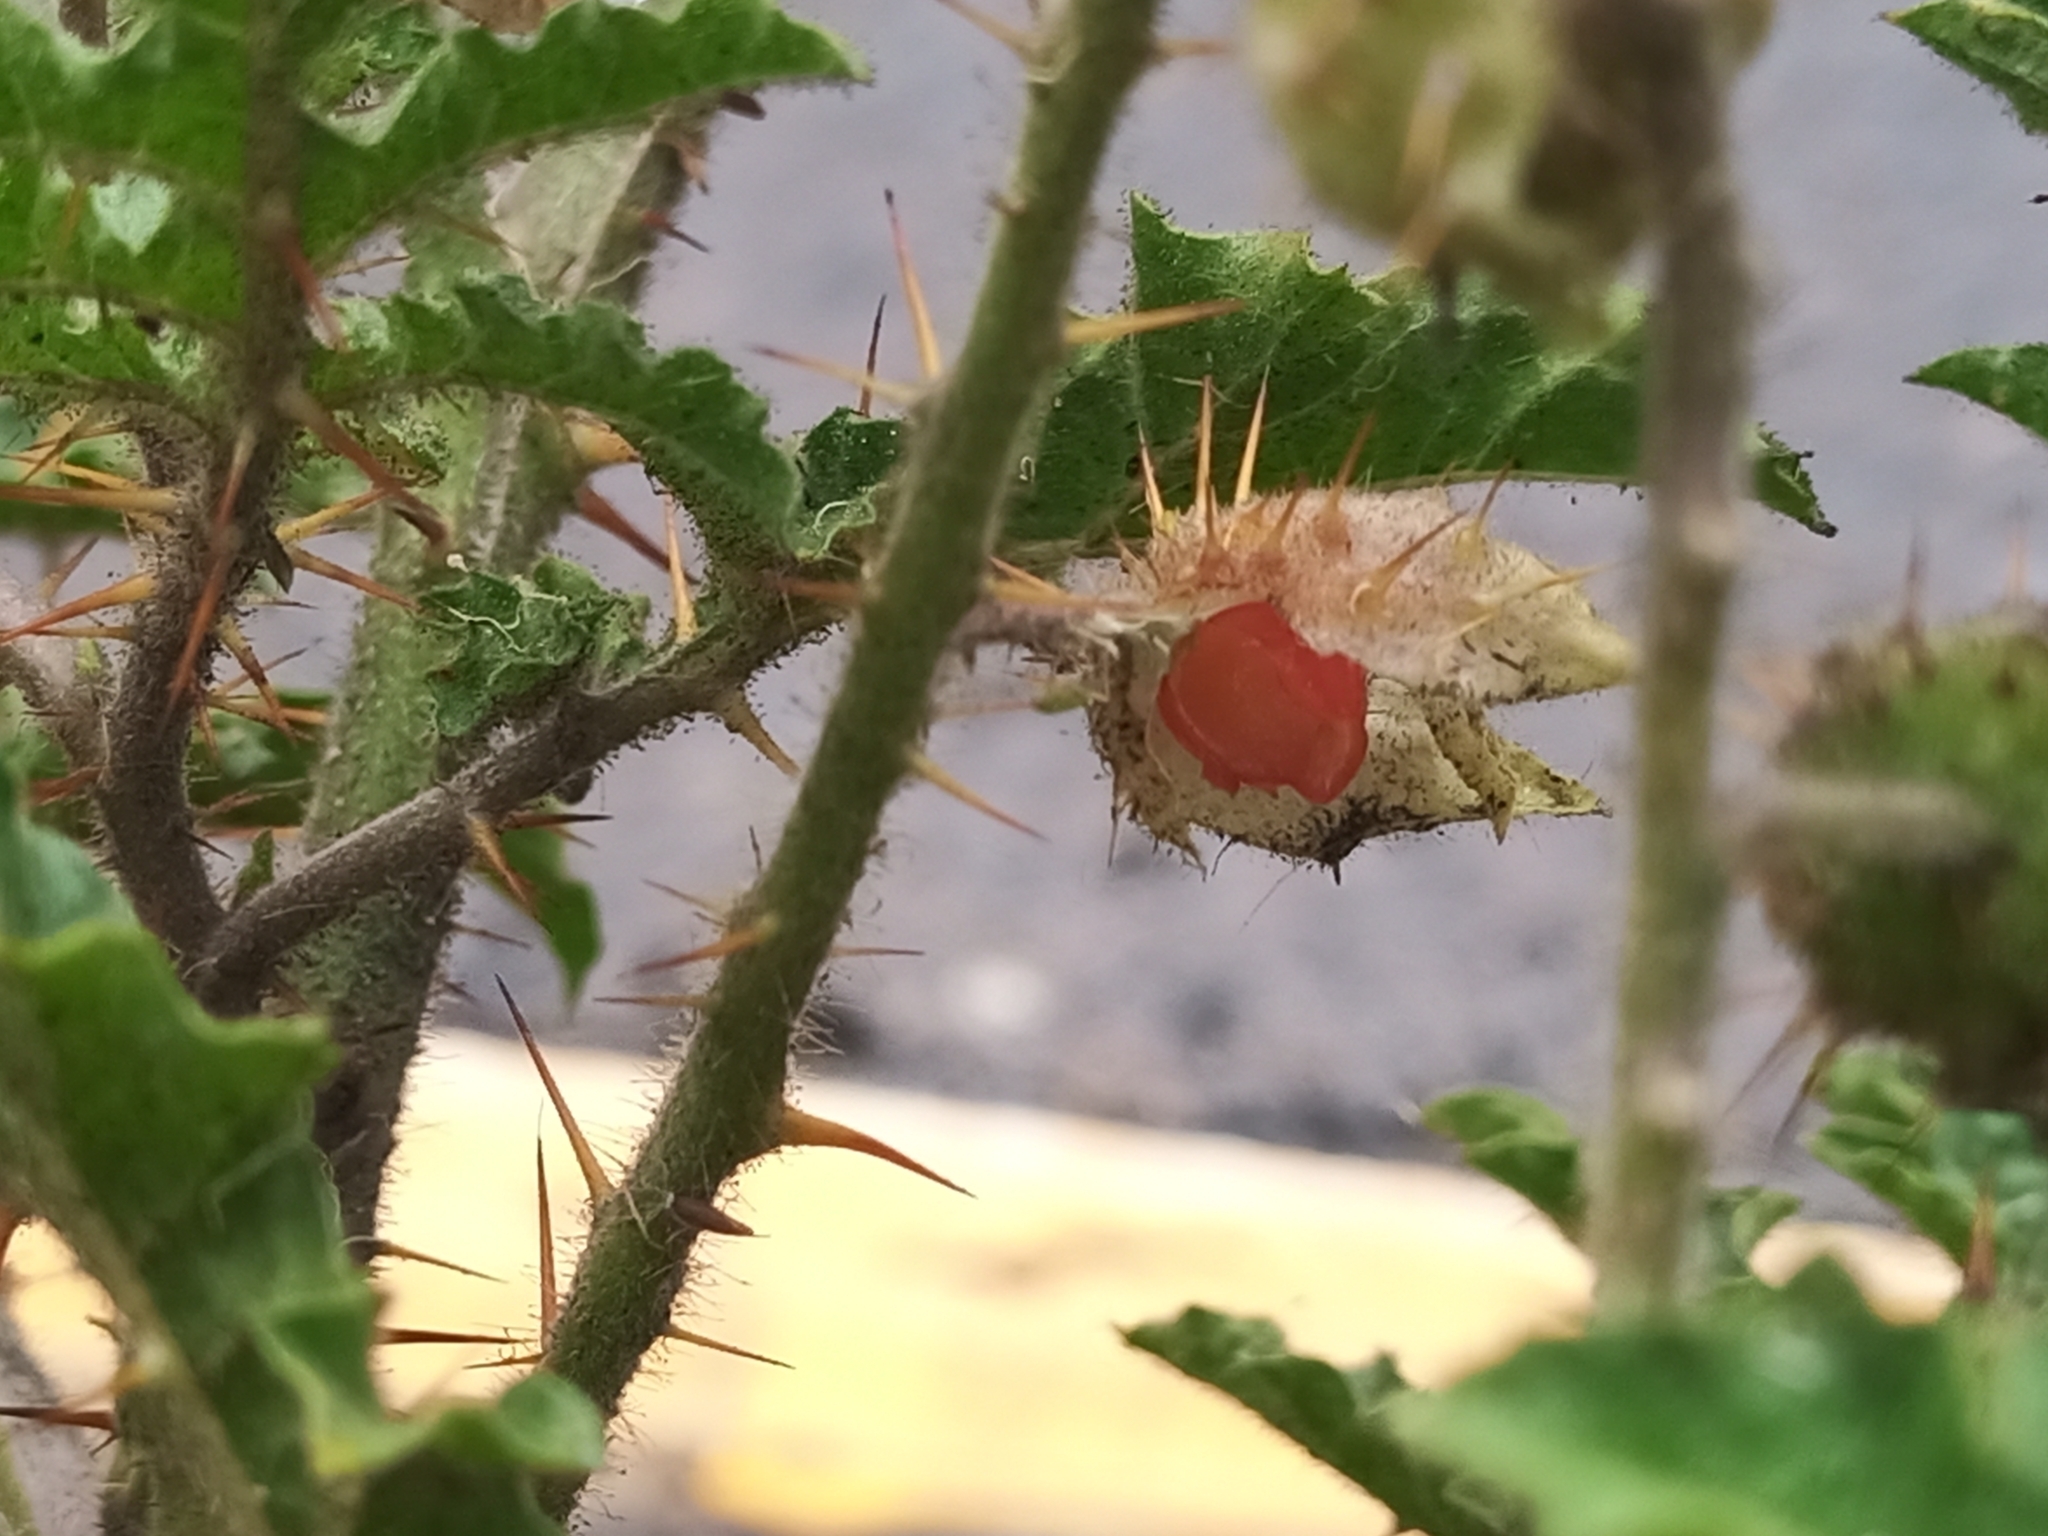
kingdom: Plantae
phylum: Tracheophyta
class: Magnoliopsida
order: Solanales
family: Solanaceae
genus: Solanum
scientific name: Solanum sisymbriifolium
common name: Red buffalo-bur
